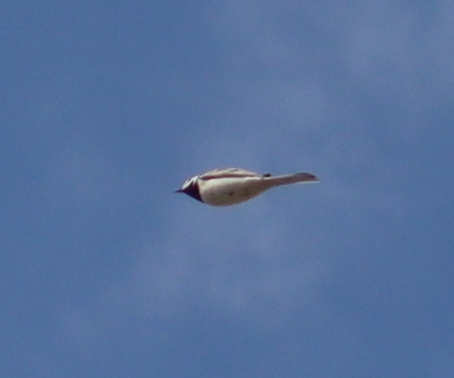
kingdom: Animalia
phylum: Chordata
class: Aves
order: Passeriformes
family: Motacillidae
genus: Motacilla
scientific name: Motacilla alba
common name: White wagtail
